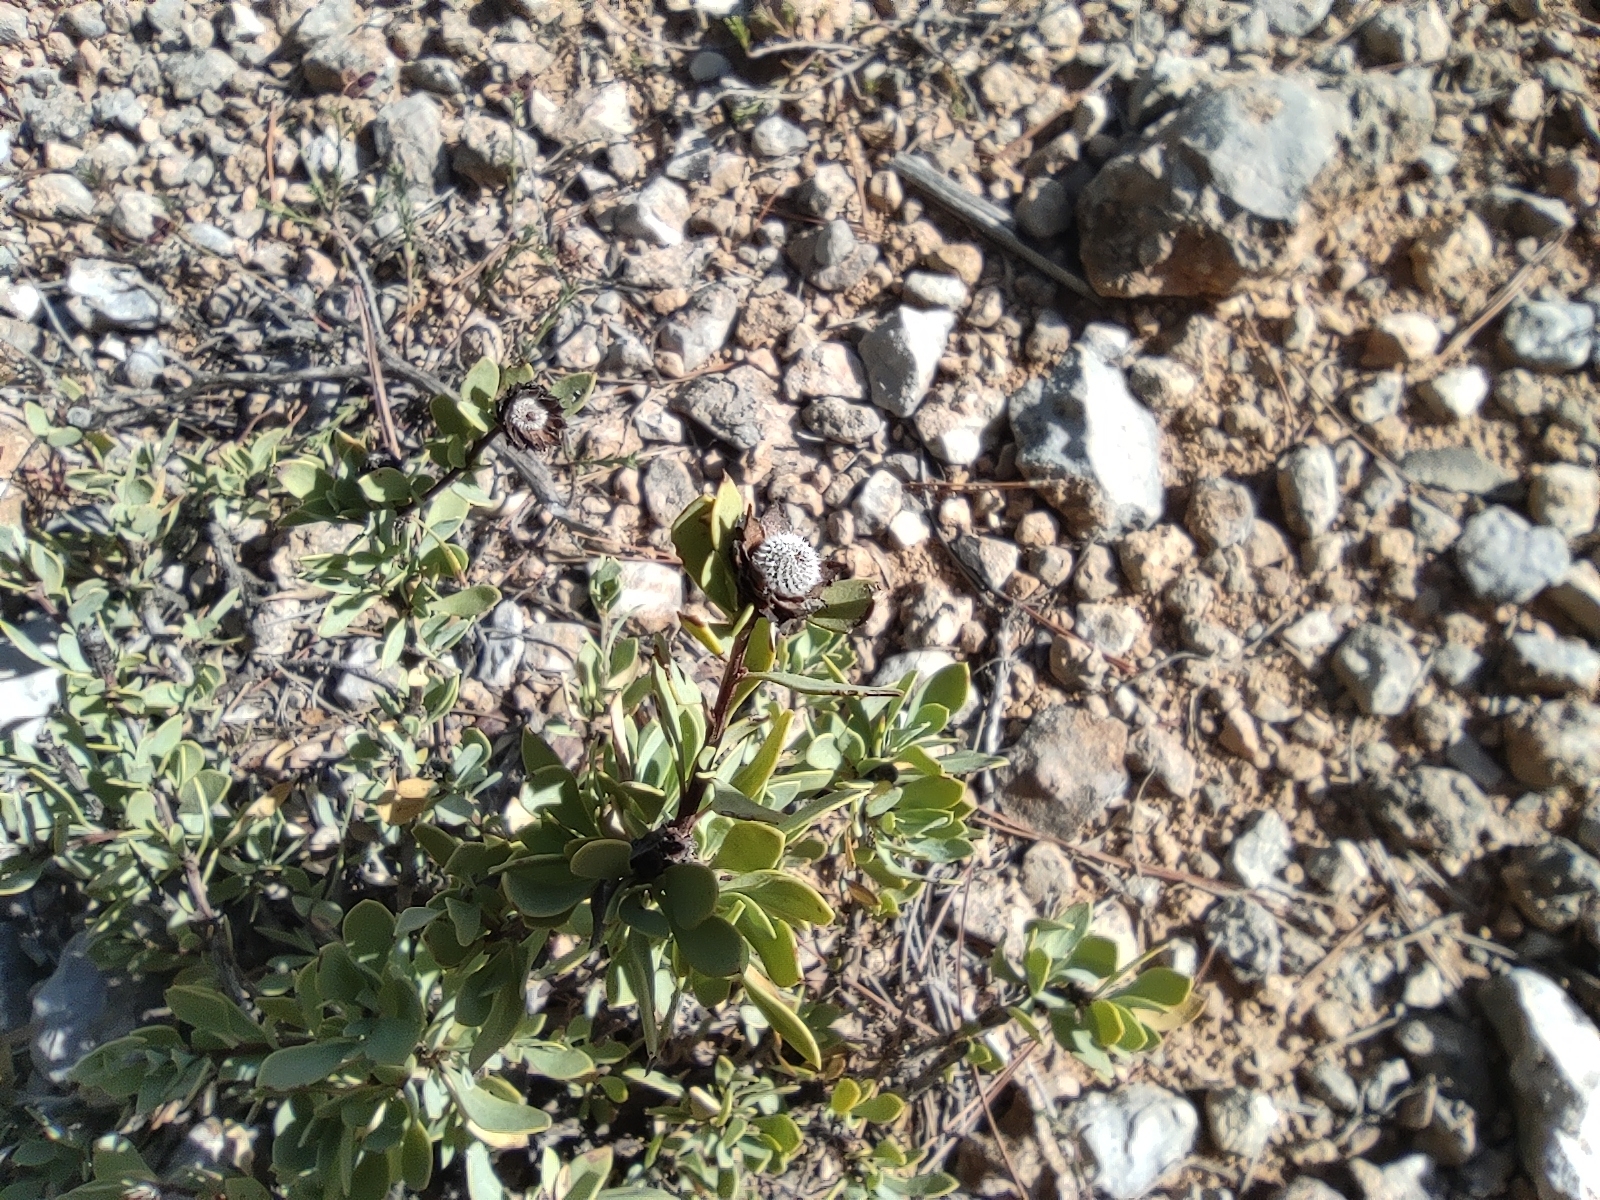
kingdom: Plantae
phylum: Tracheophyta
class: Magnoliopsida
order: Lamiales
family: Plantaginaceae
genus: Globularia
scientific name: Globularia alypum
